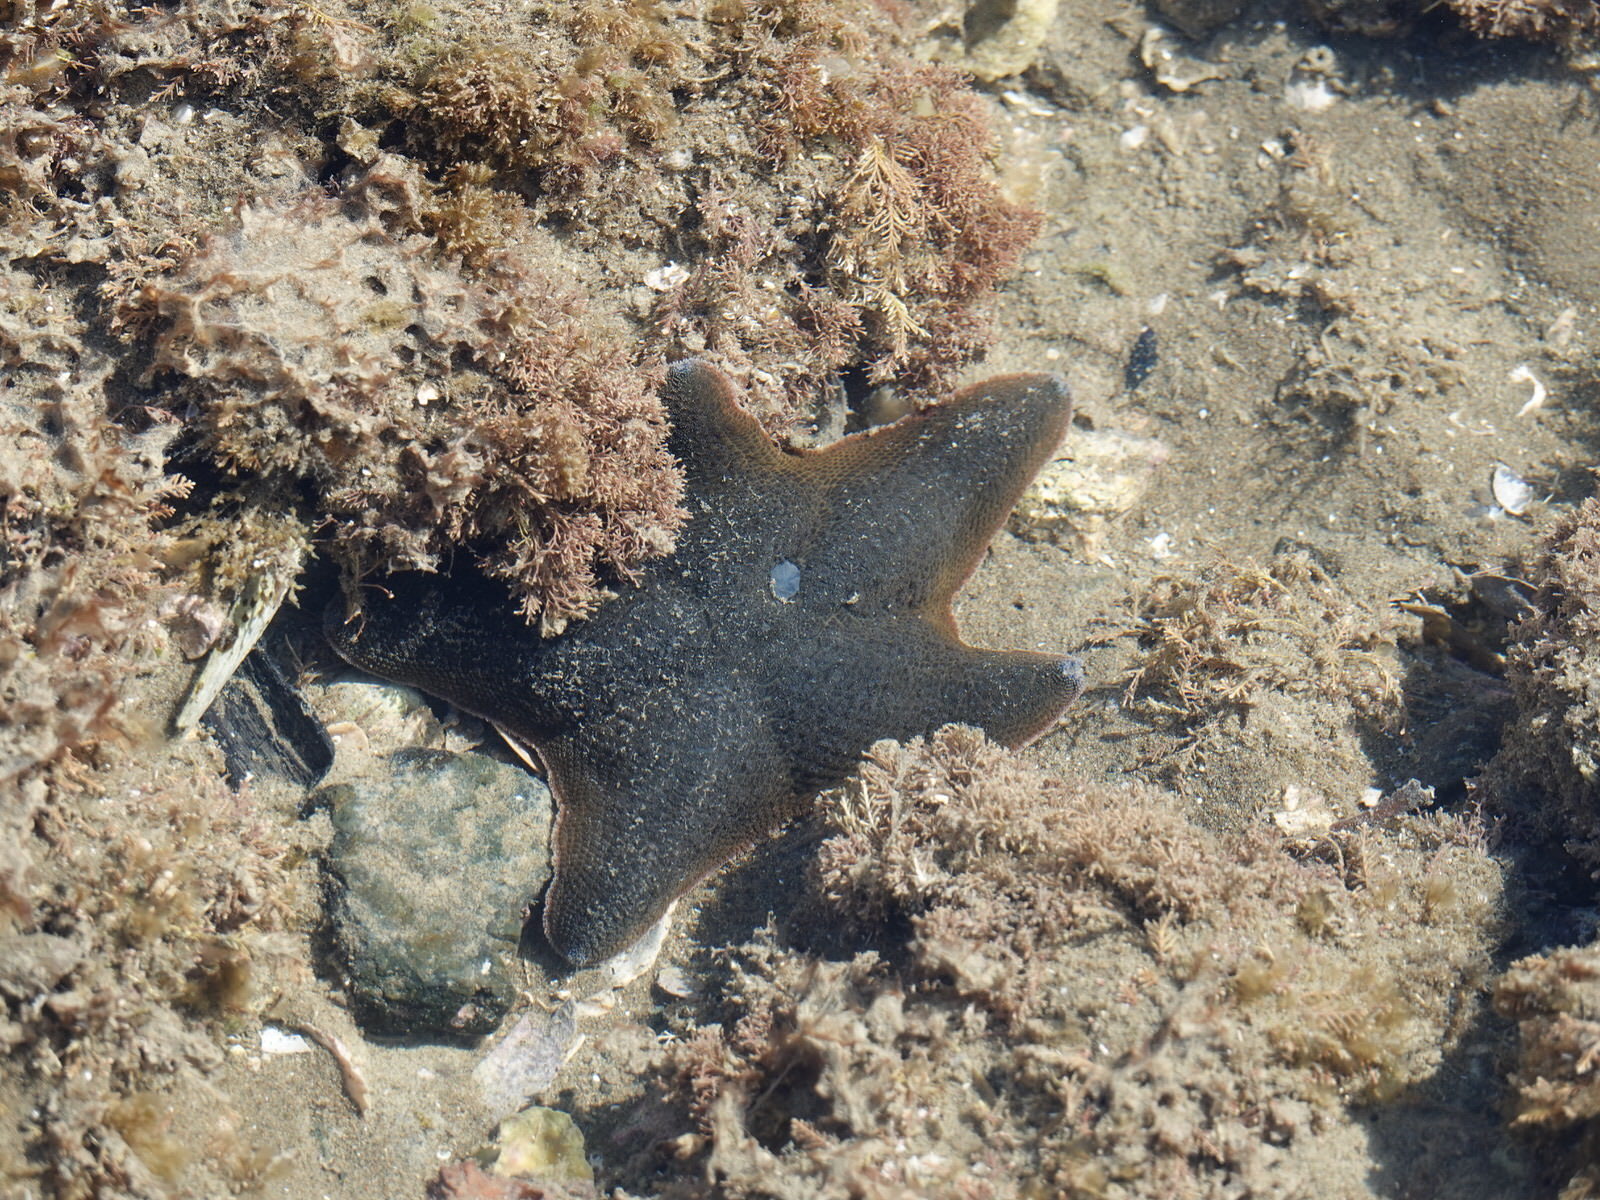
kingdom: Animalia
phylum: Echinodermata
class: Asteroidea
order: Valvatida
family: Asterinidae
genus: Patiriella
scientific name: Patiriella regularis
